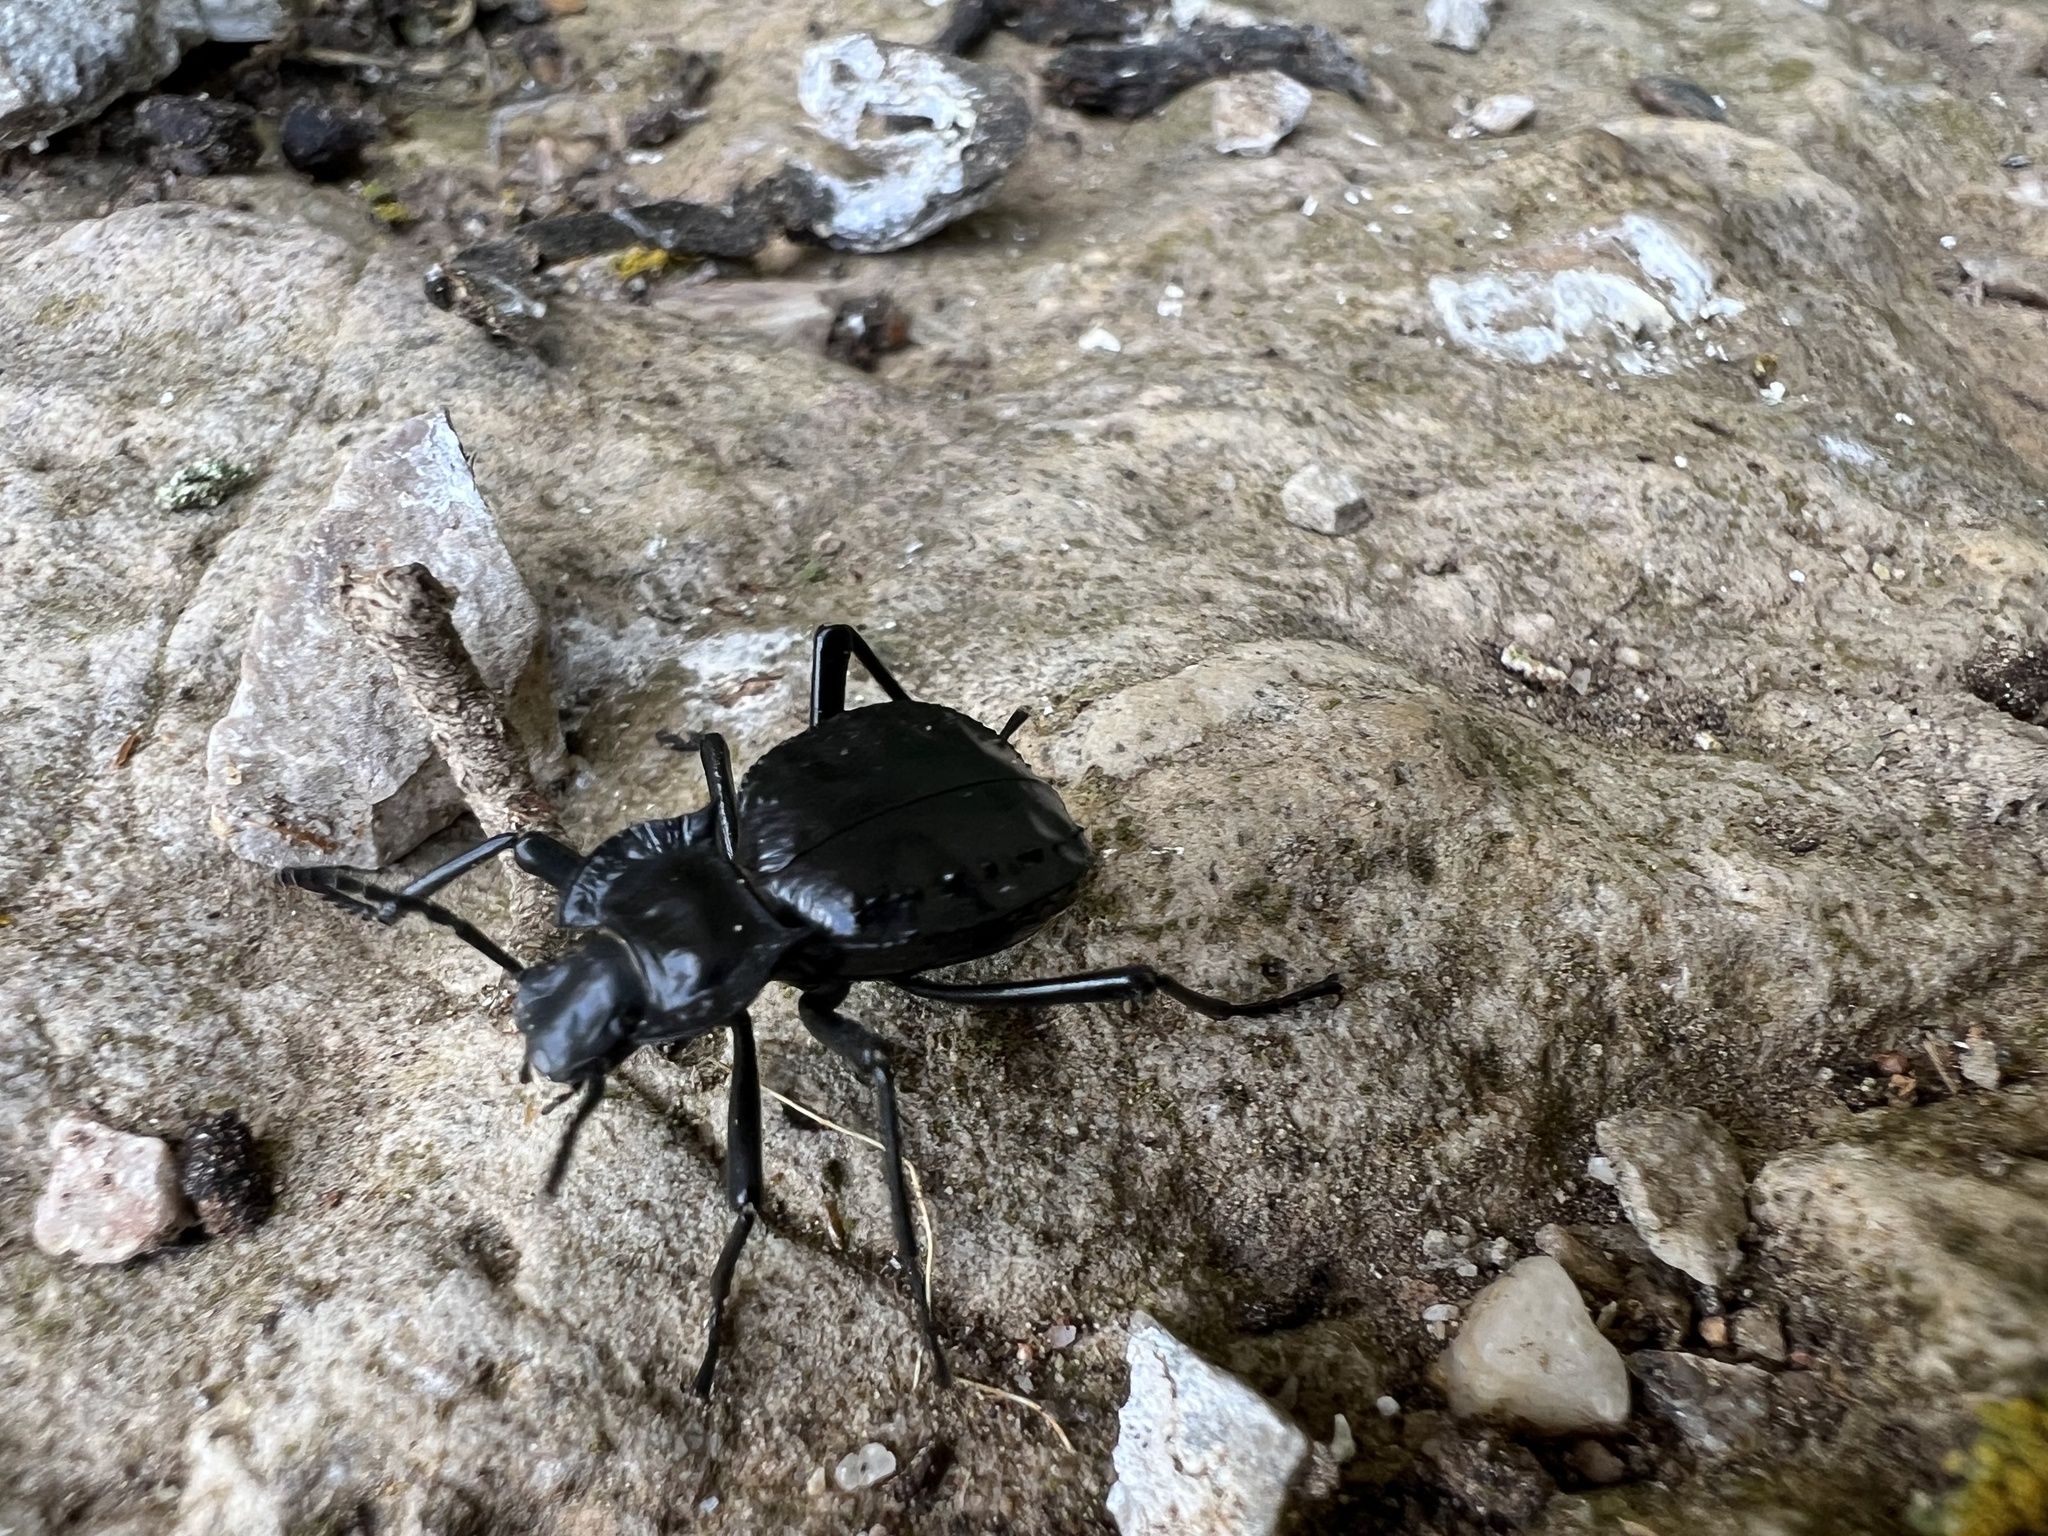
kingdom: Animalia
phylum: Arthropoda
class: Insecta
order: Coleoptera
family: Tenebrionidae
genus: Akis
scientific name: Akis bacarozzo
